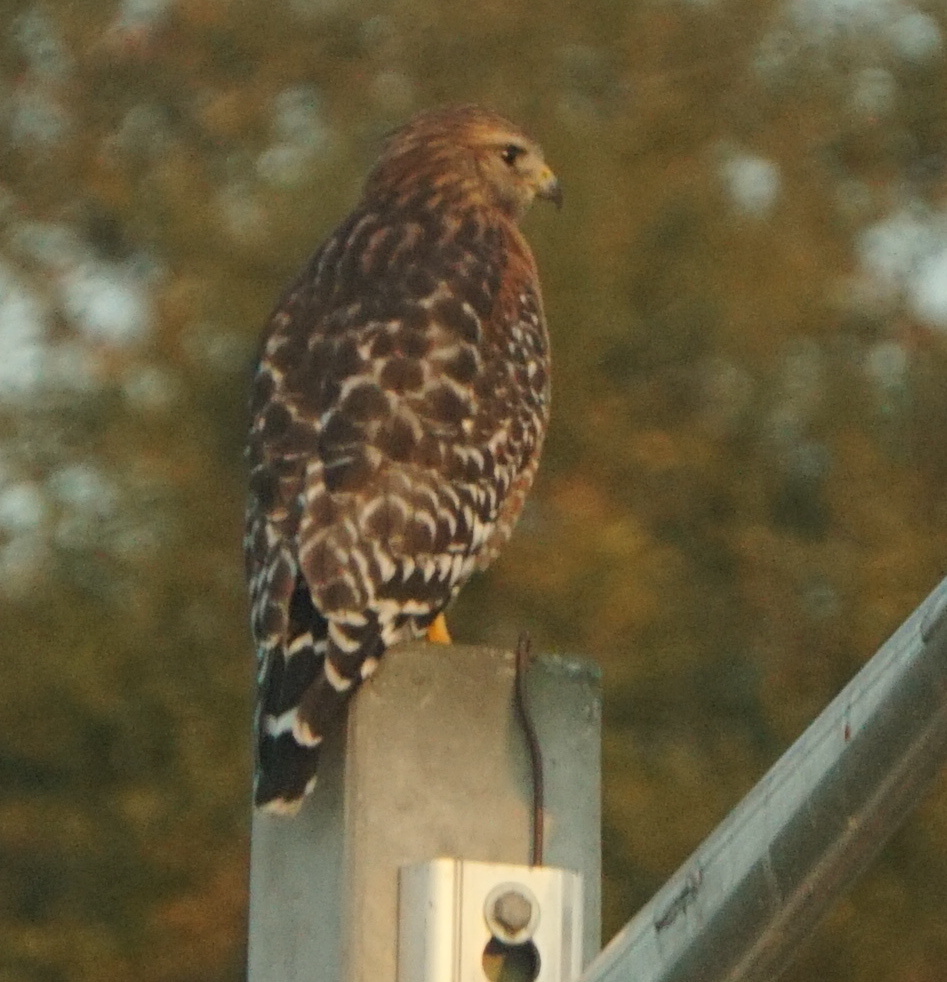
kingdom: Animalia
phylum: Chordata
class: Aves
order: Accipitriformes
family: Accipitridae
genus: Buteo
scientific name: Buteo lineatus
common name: Red-shouldered hawk
